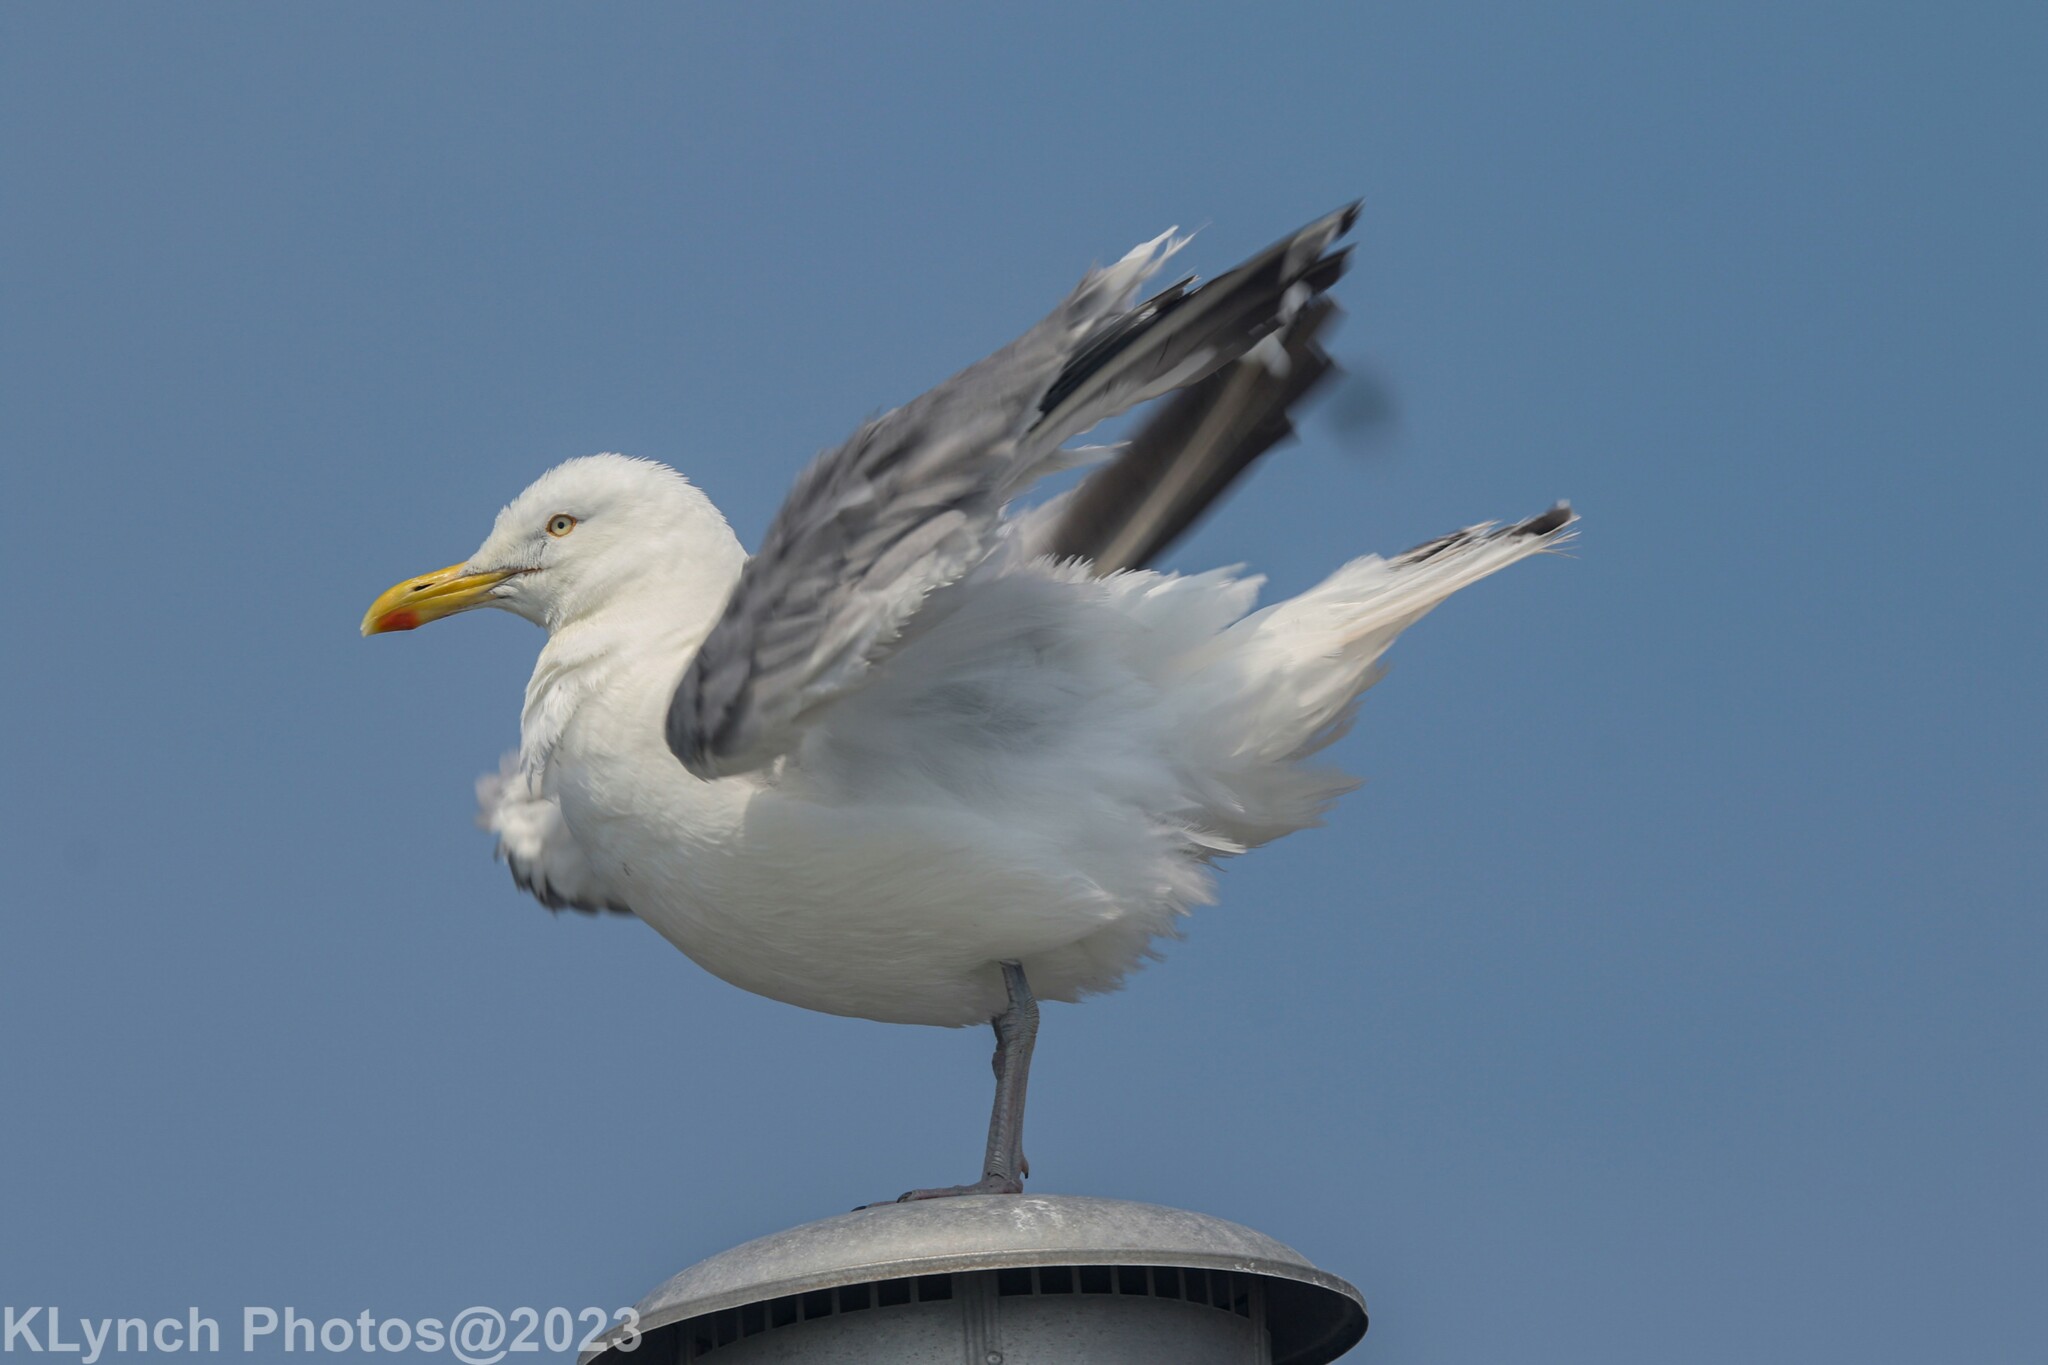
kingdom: Animalia
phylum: Chordata
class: Aves
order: Charadriiformes
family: Laridae
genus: Larus
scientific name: Larus argentatus
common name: Herring gull
